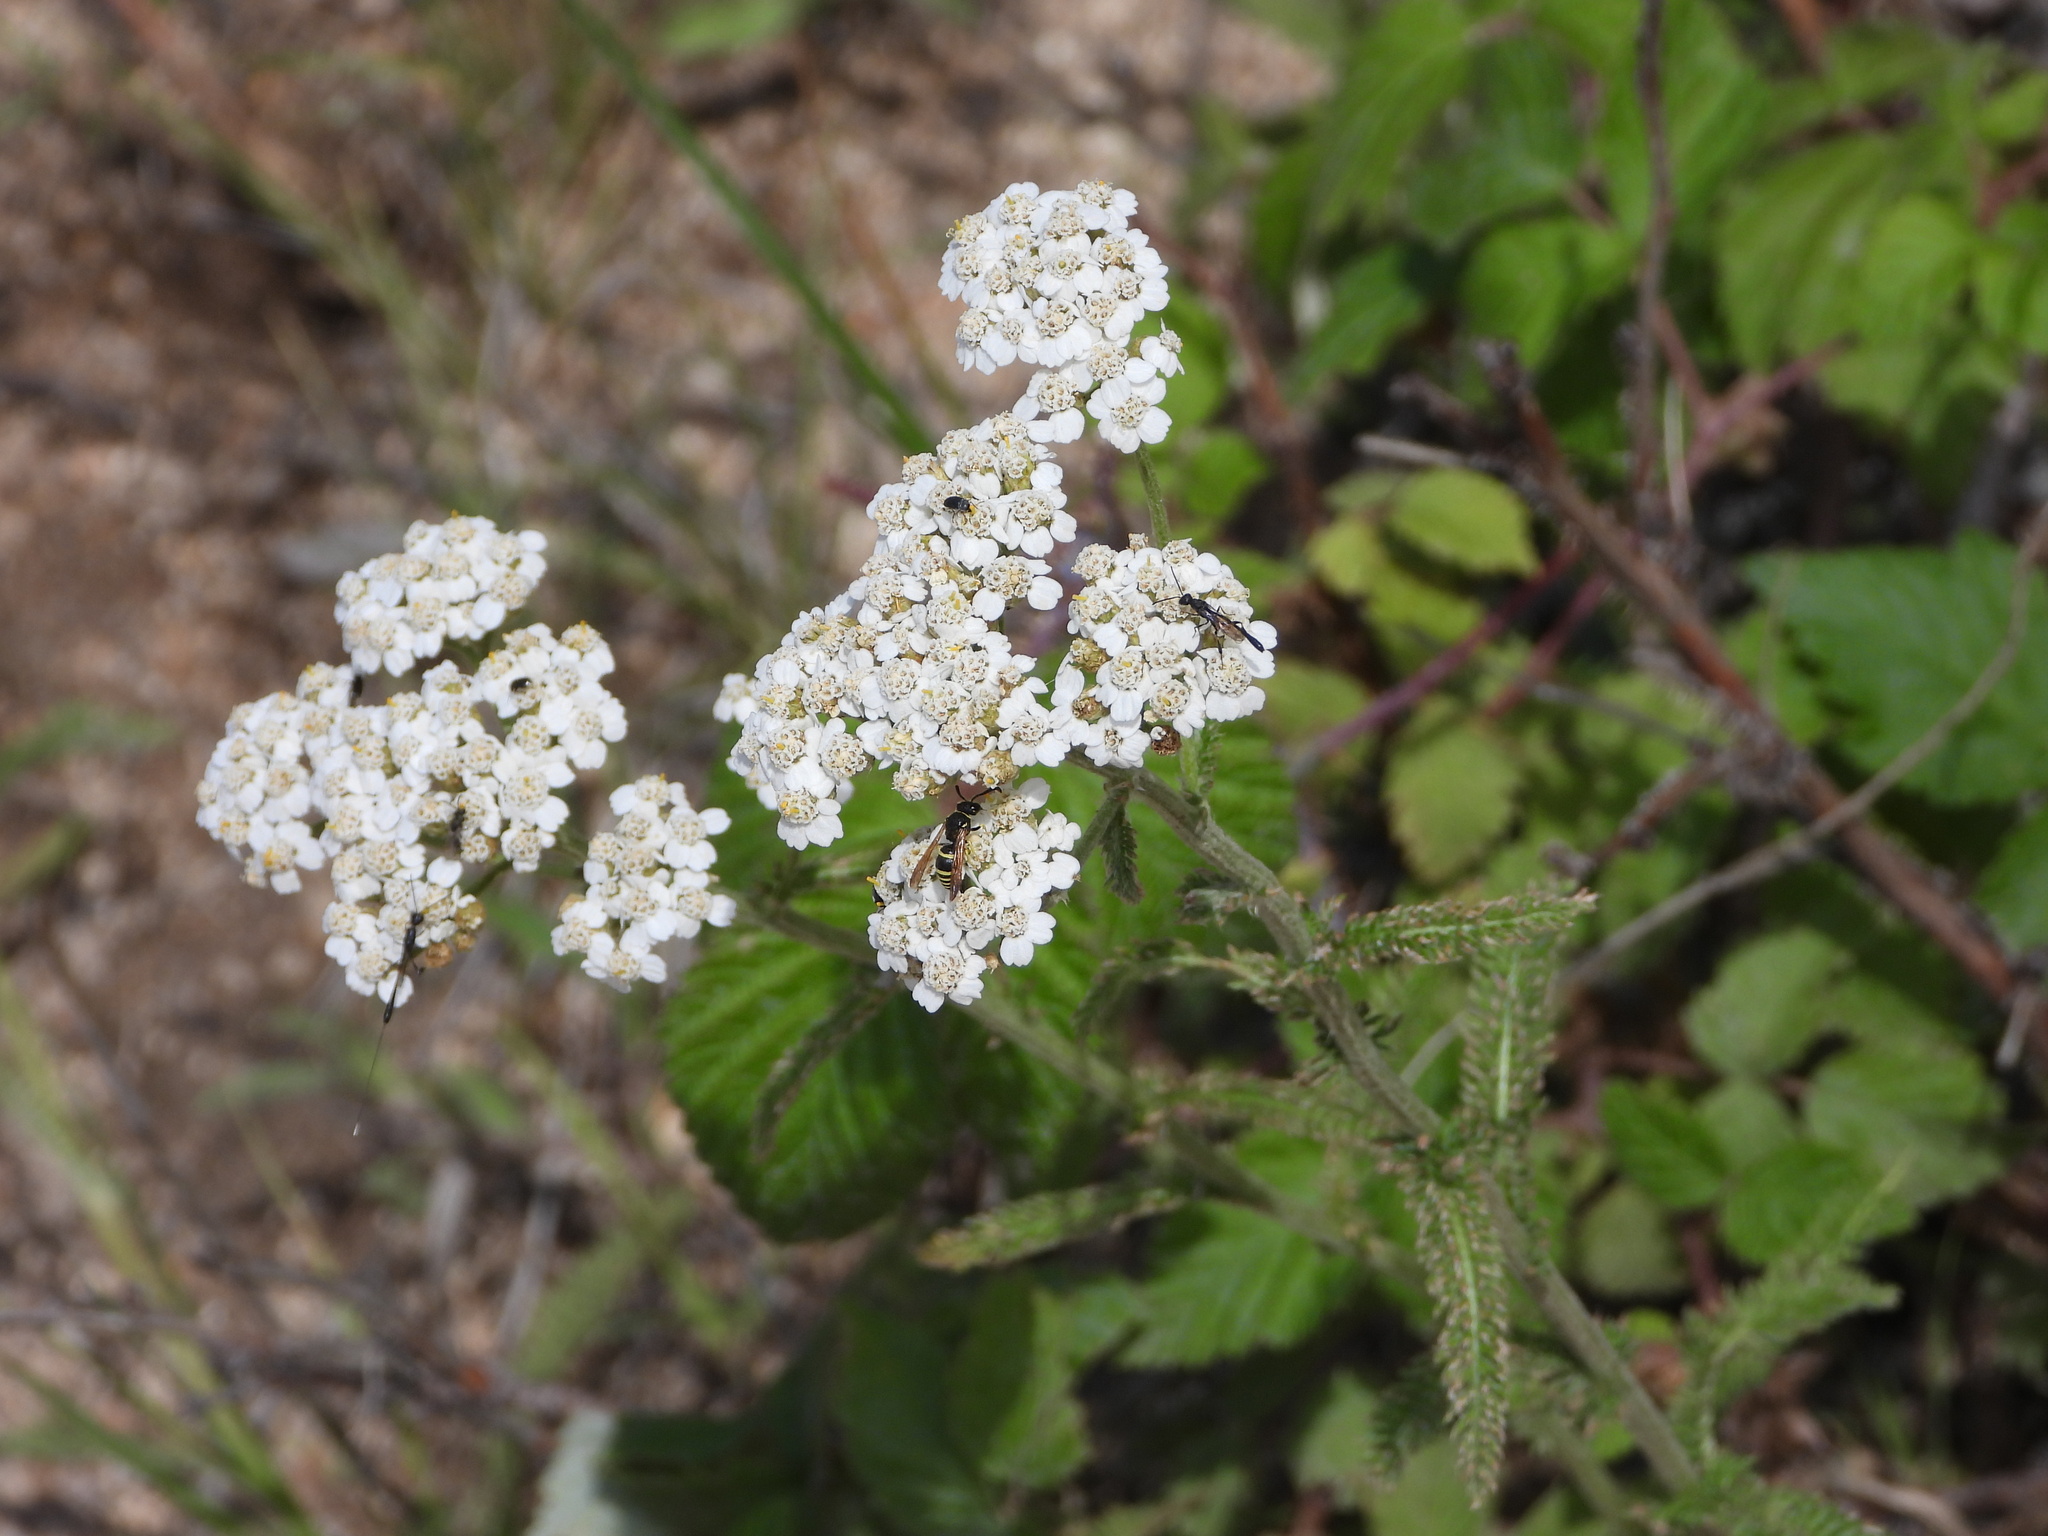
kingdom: Plantae
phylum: Tracheophyta
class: Magnoliopsida
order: Asterales
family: Asteraceae
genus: Achillea
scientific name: Achillea millefolium
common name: Yarrow
